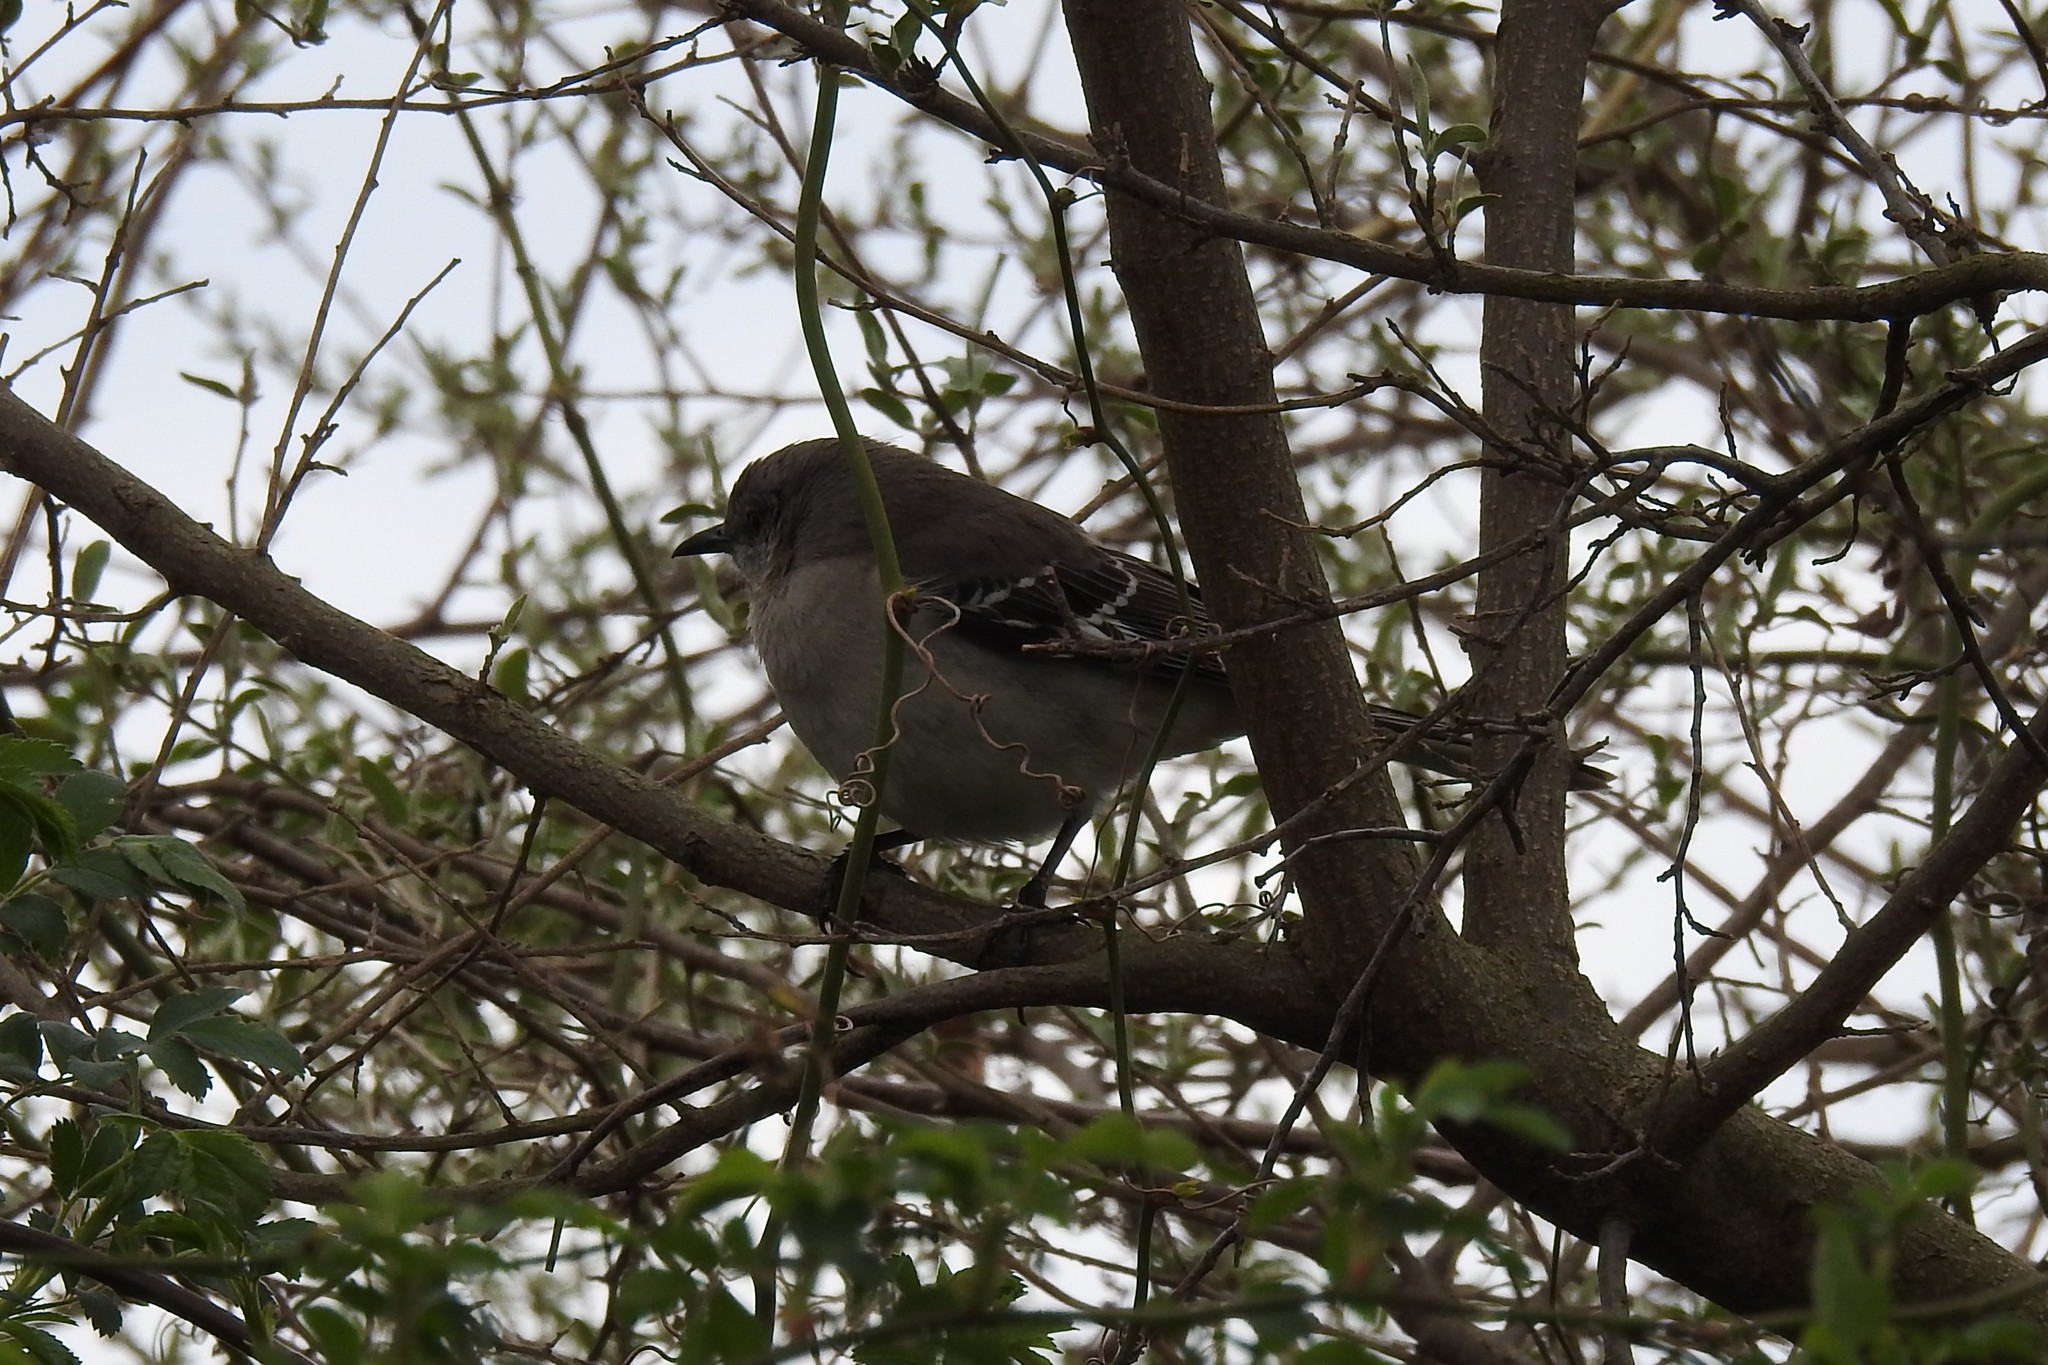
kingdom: Animalia
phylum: Chordata
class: Aves
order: Passeriformes
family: Mimidae
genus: Mimus
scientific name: Mimus polyglottos
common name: Northern mockingbird
